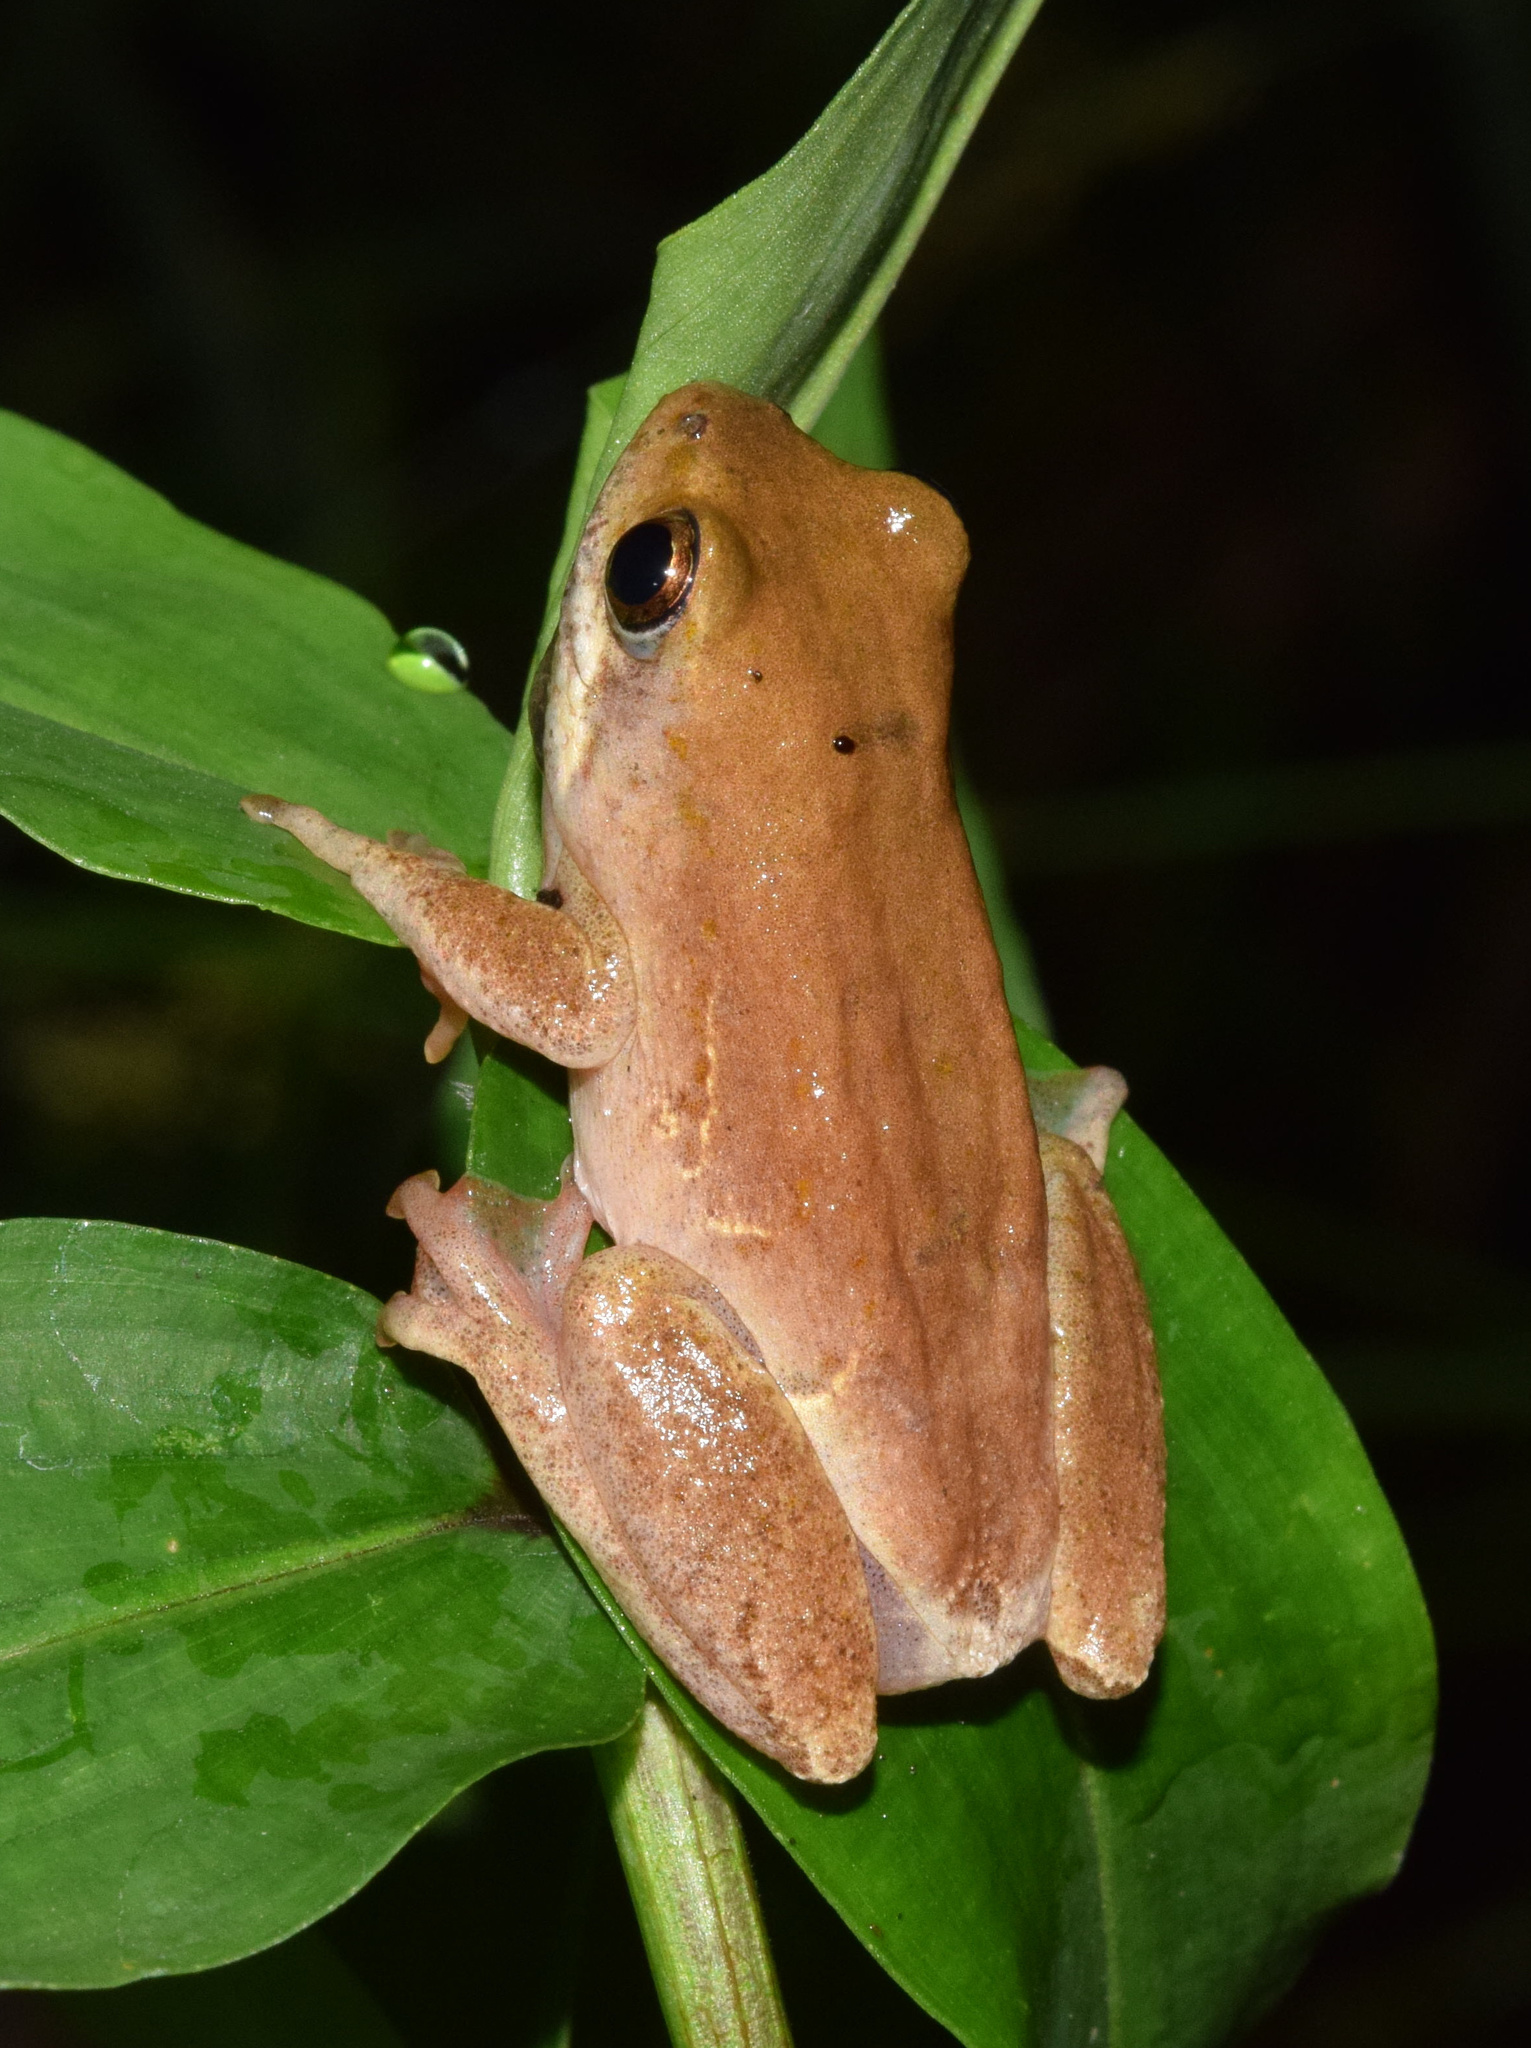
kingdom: Animalia
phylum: Chordata
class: Amphibia
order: Anura
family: Hyperoliidae
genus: Hyperolius
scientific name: Hyperolius marmoratus
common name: Painted reed frog
